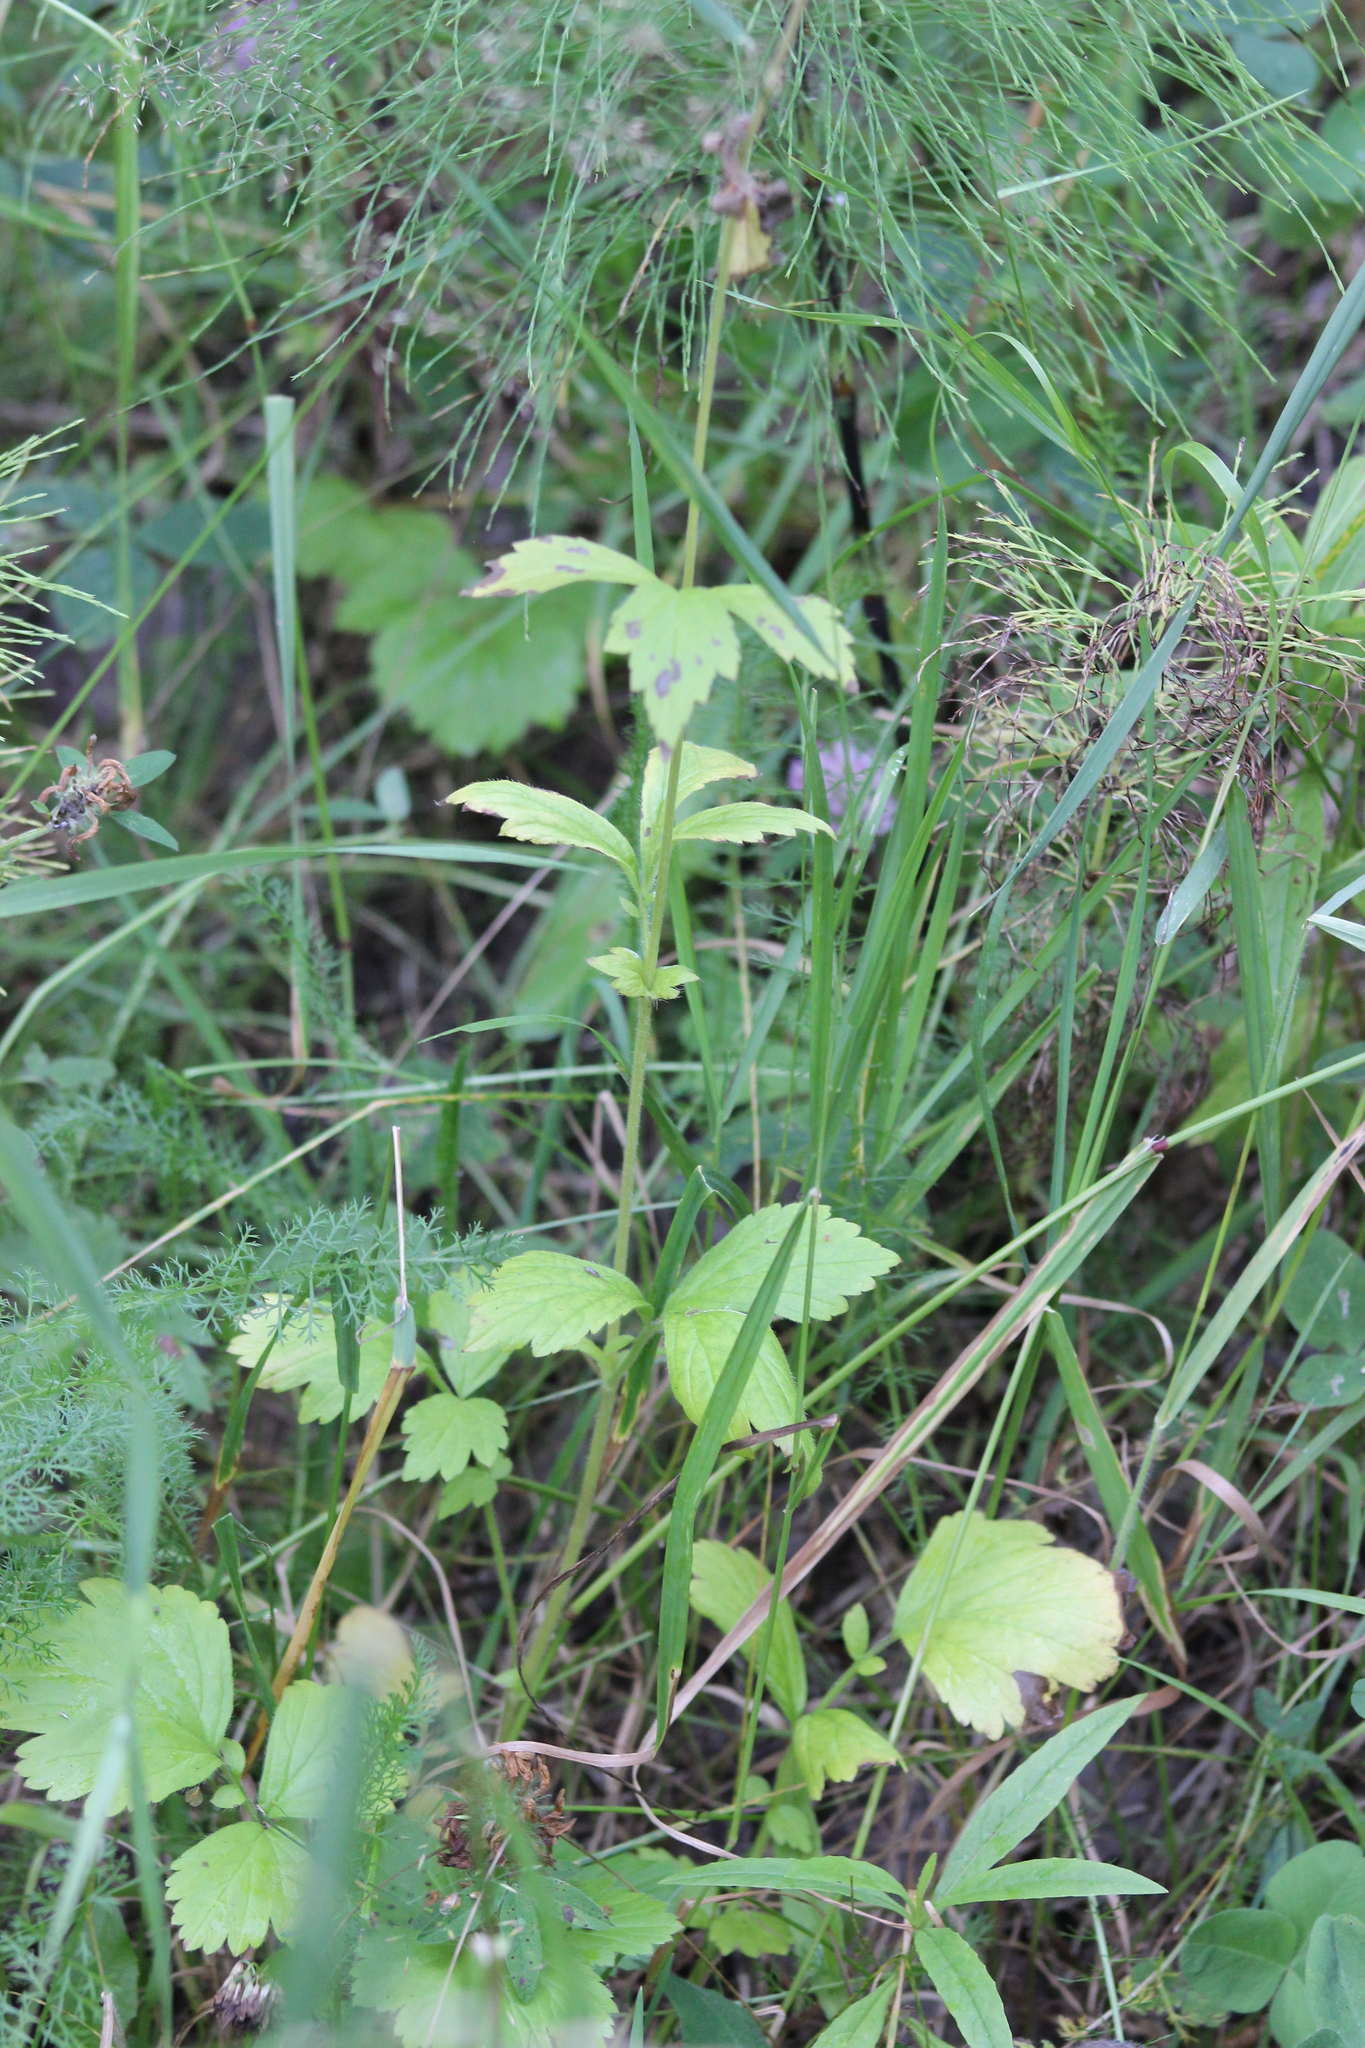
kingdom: Plantae
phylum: Tracheophyta
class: Magnoliopsida
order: Rosales
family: Rosaceae
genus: Geum
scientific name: Geum aleppicum
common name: Yellow avens
